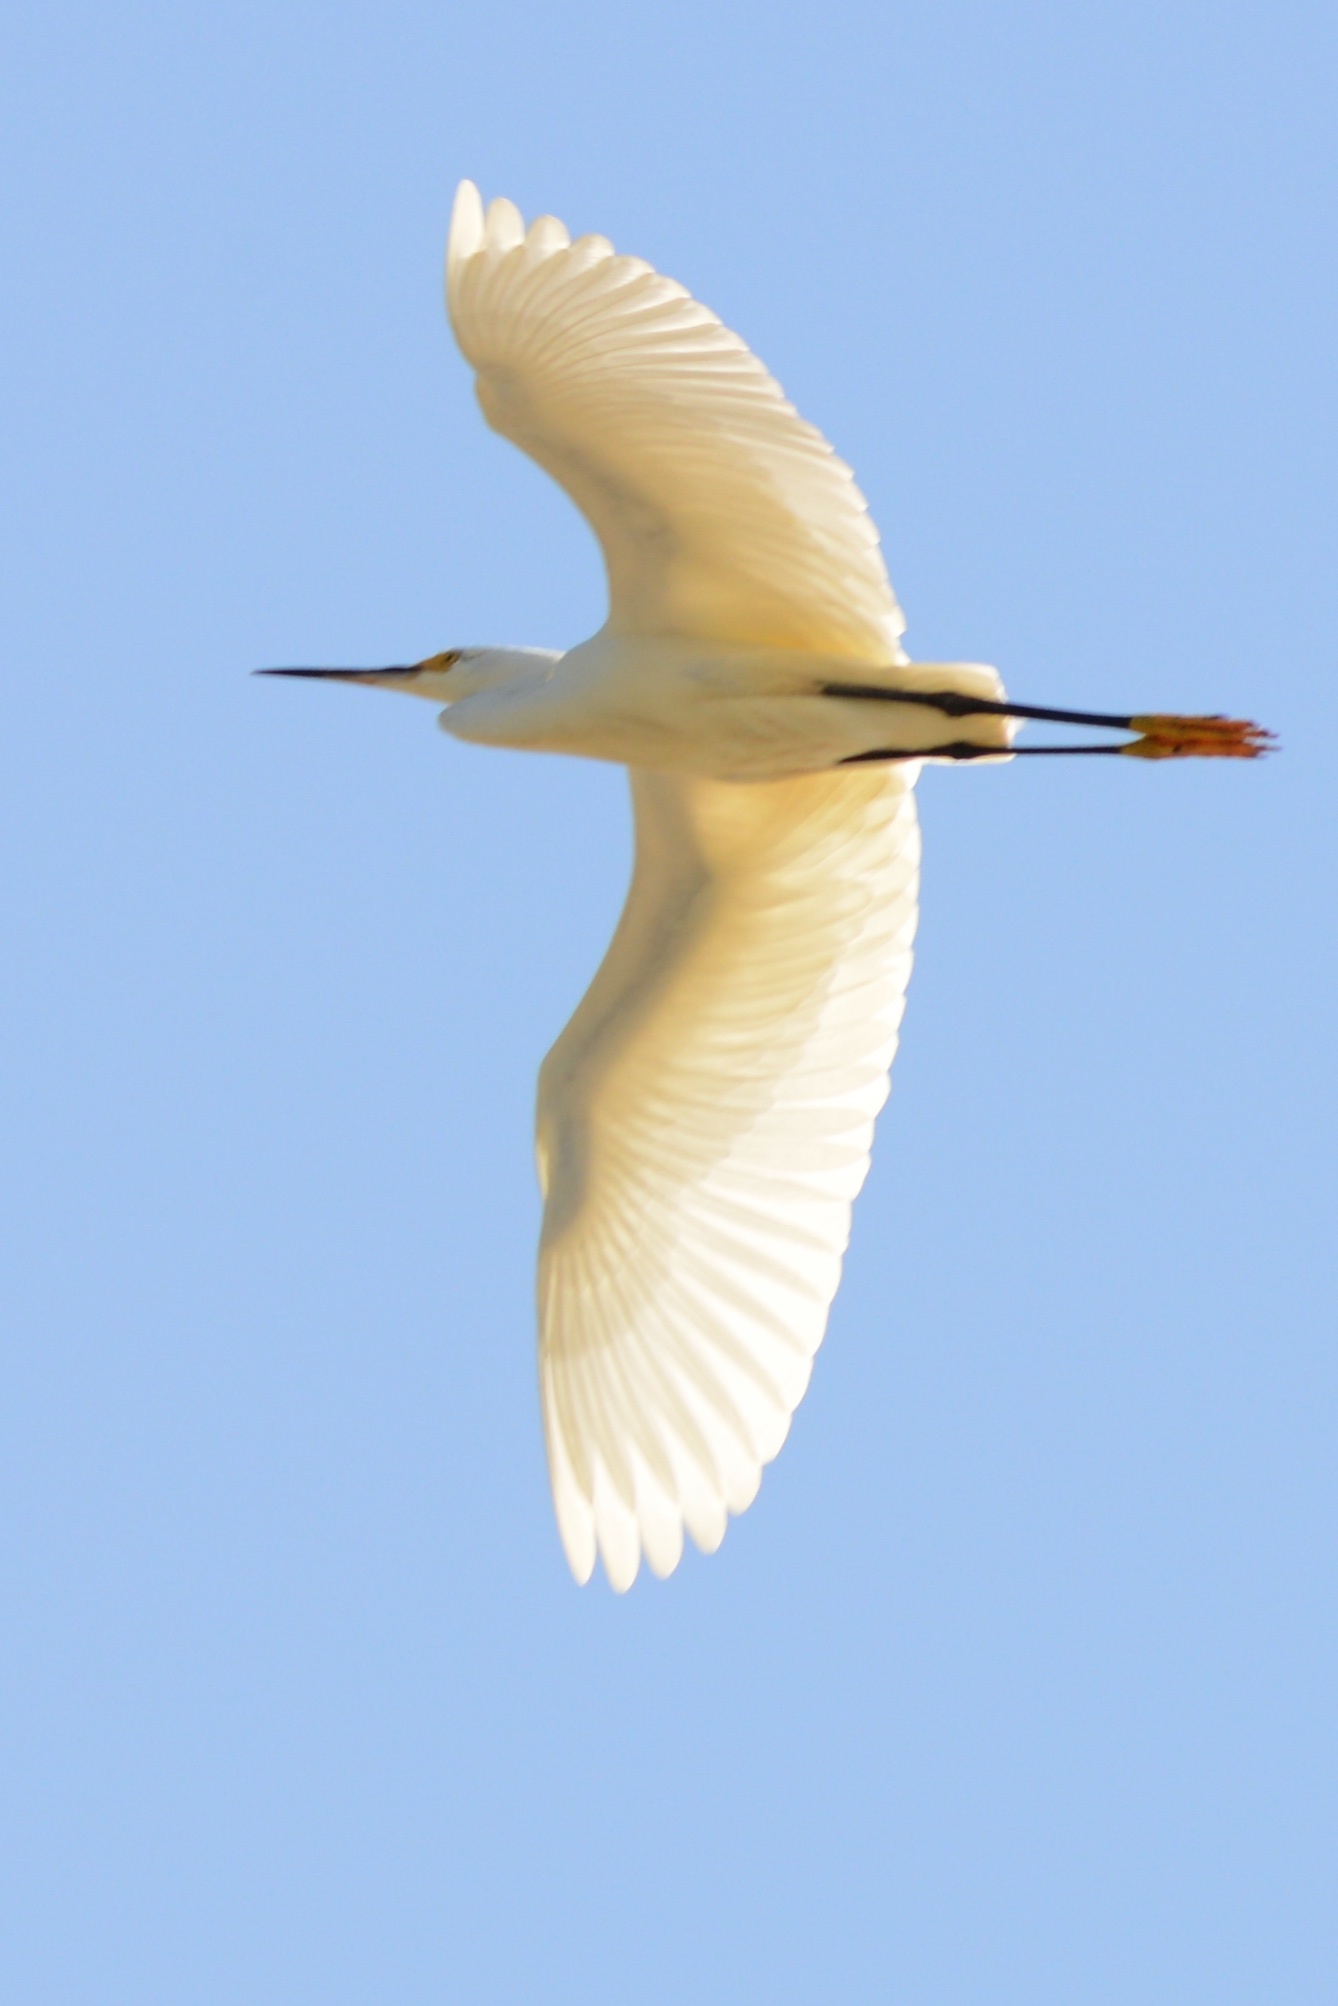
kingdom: Animalia
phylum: Chordata
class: Aves
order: Pelecaniformes
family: Ardeidae
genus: Egretta
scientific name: Egretta thula
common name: Snowy egret
